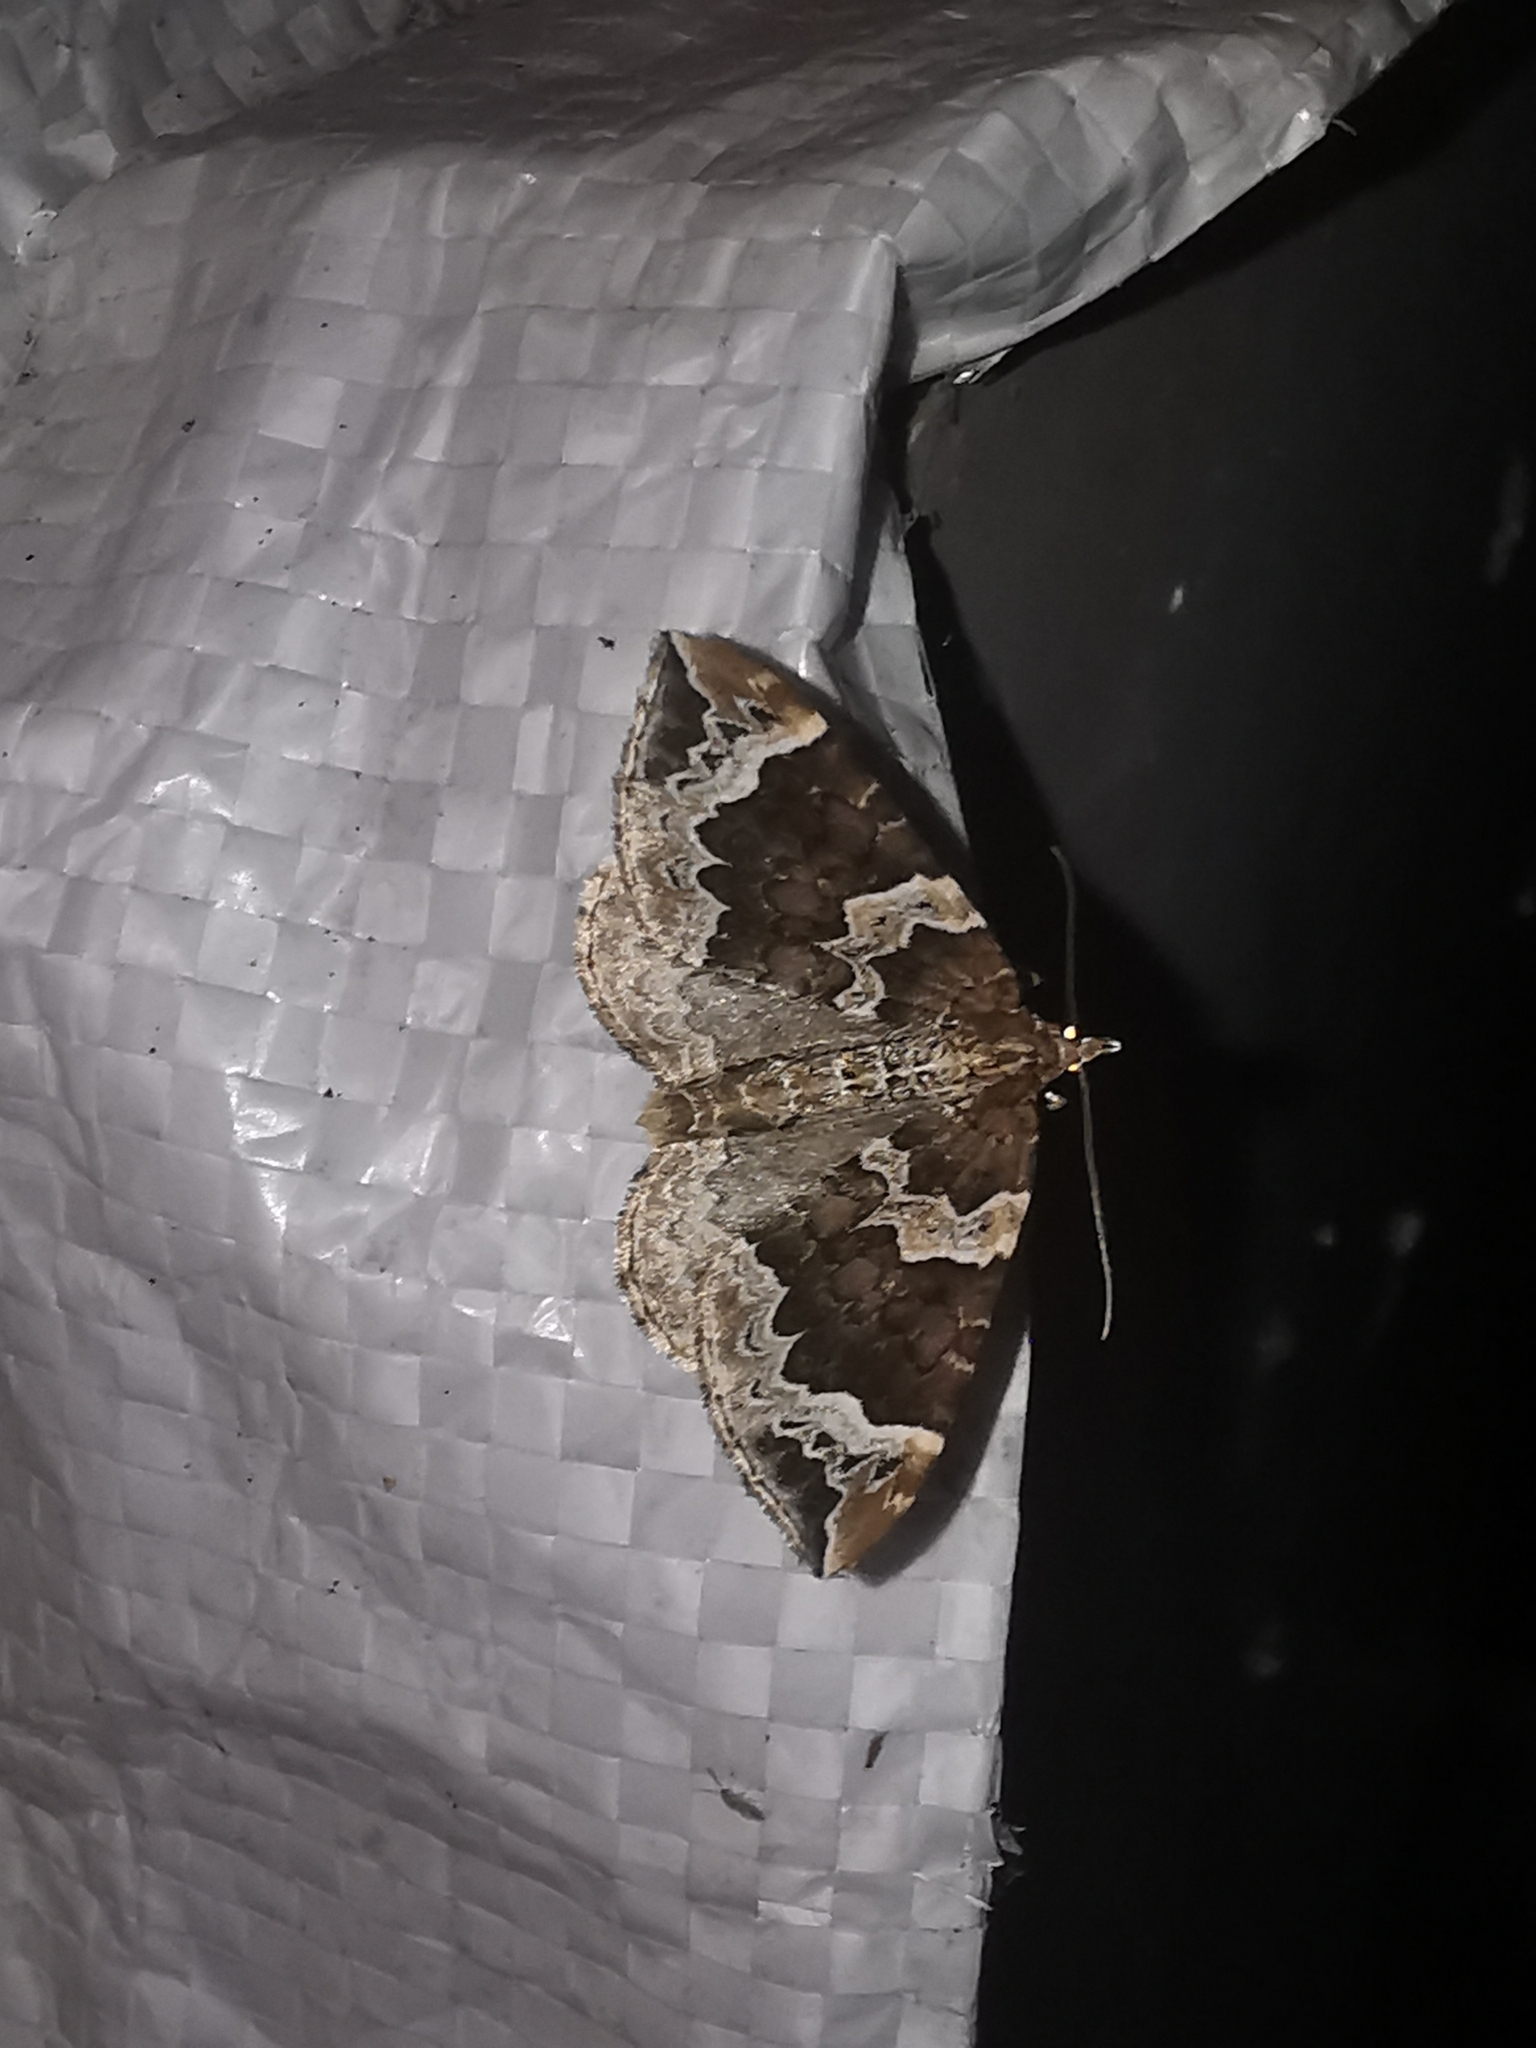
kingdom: Animalia
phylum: Arthropoda
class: Insecta
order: Lepidoptera
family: Geometridae
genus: Eulithis
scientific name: Eulithis prunata
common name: Phoenix
